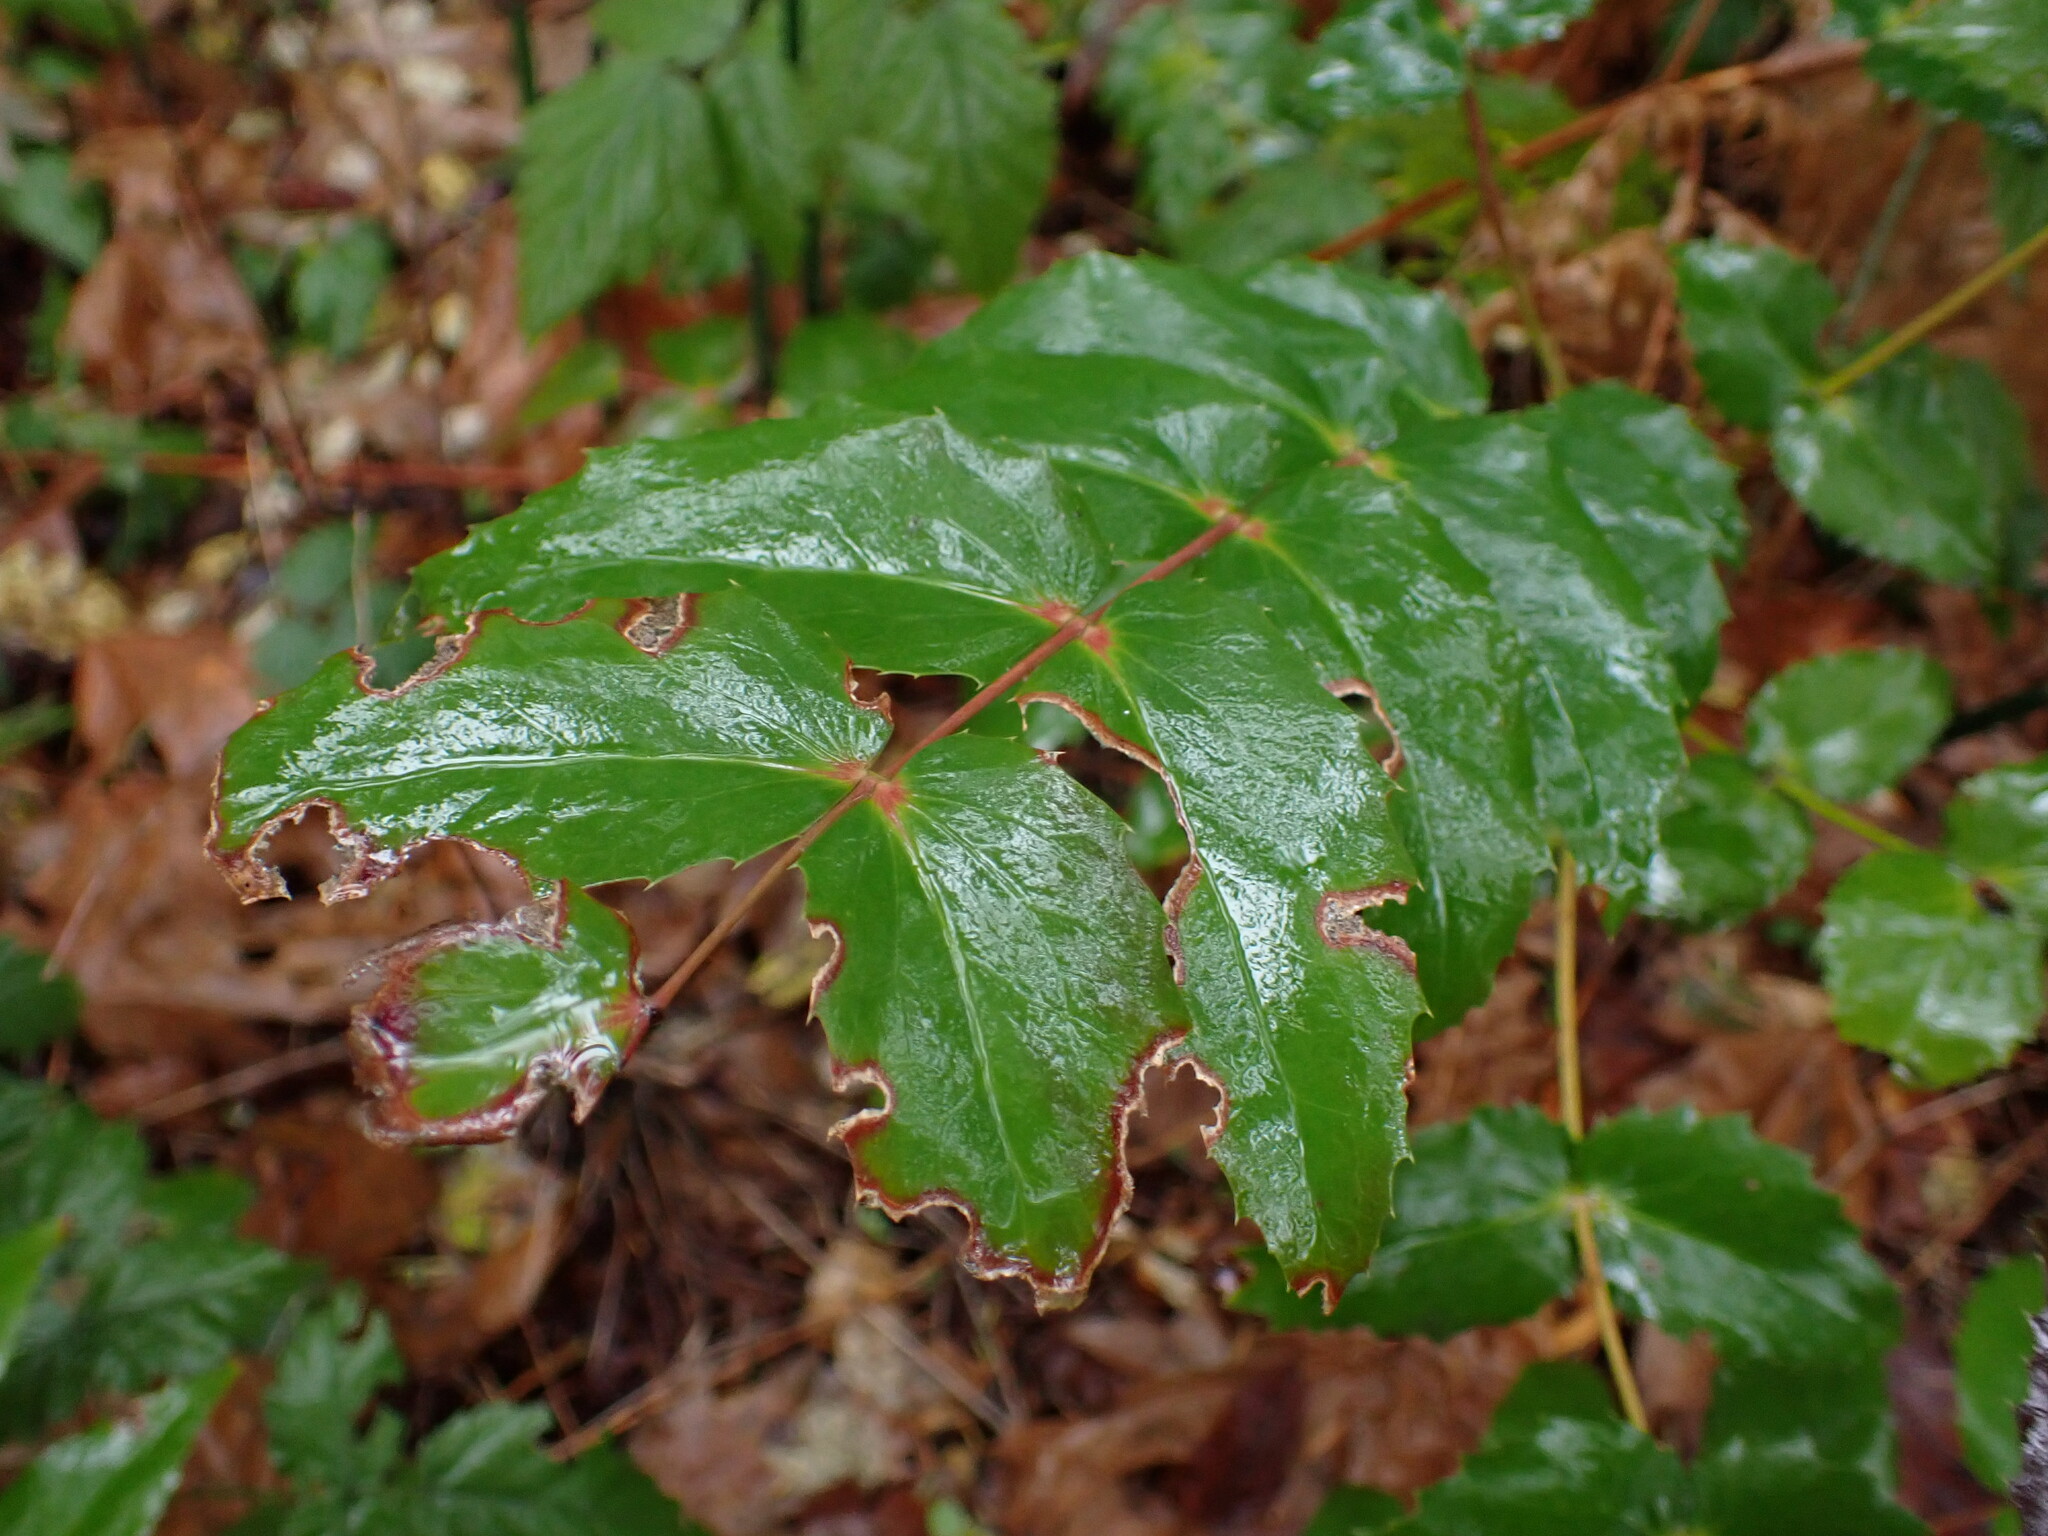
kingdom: Plantae
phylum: Tracheophyta
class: Magnoliopsida
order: Ranunculales
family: Berberidaceae
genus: Mahonia
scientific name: Mahonia nervosa
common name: Cascade oregon-grape
